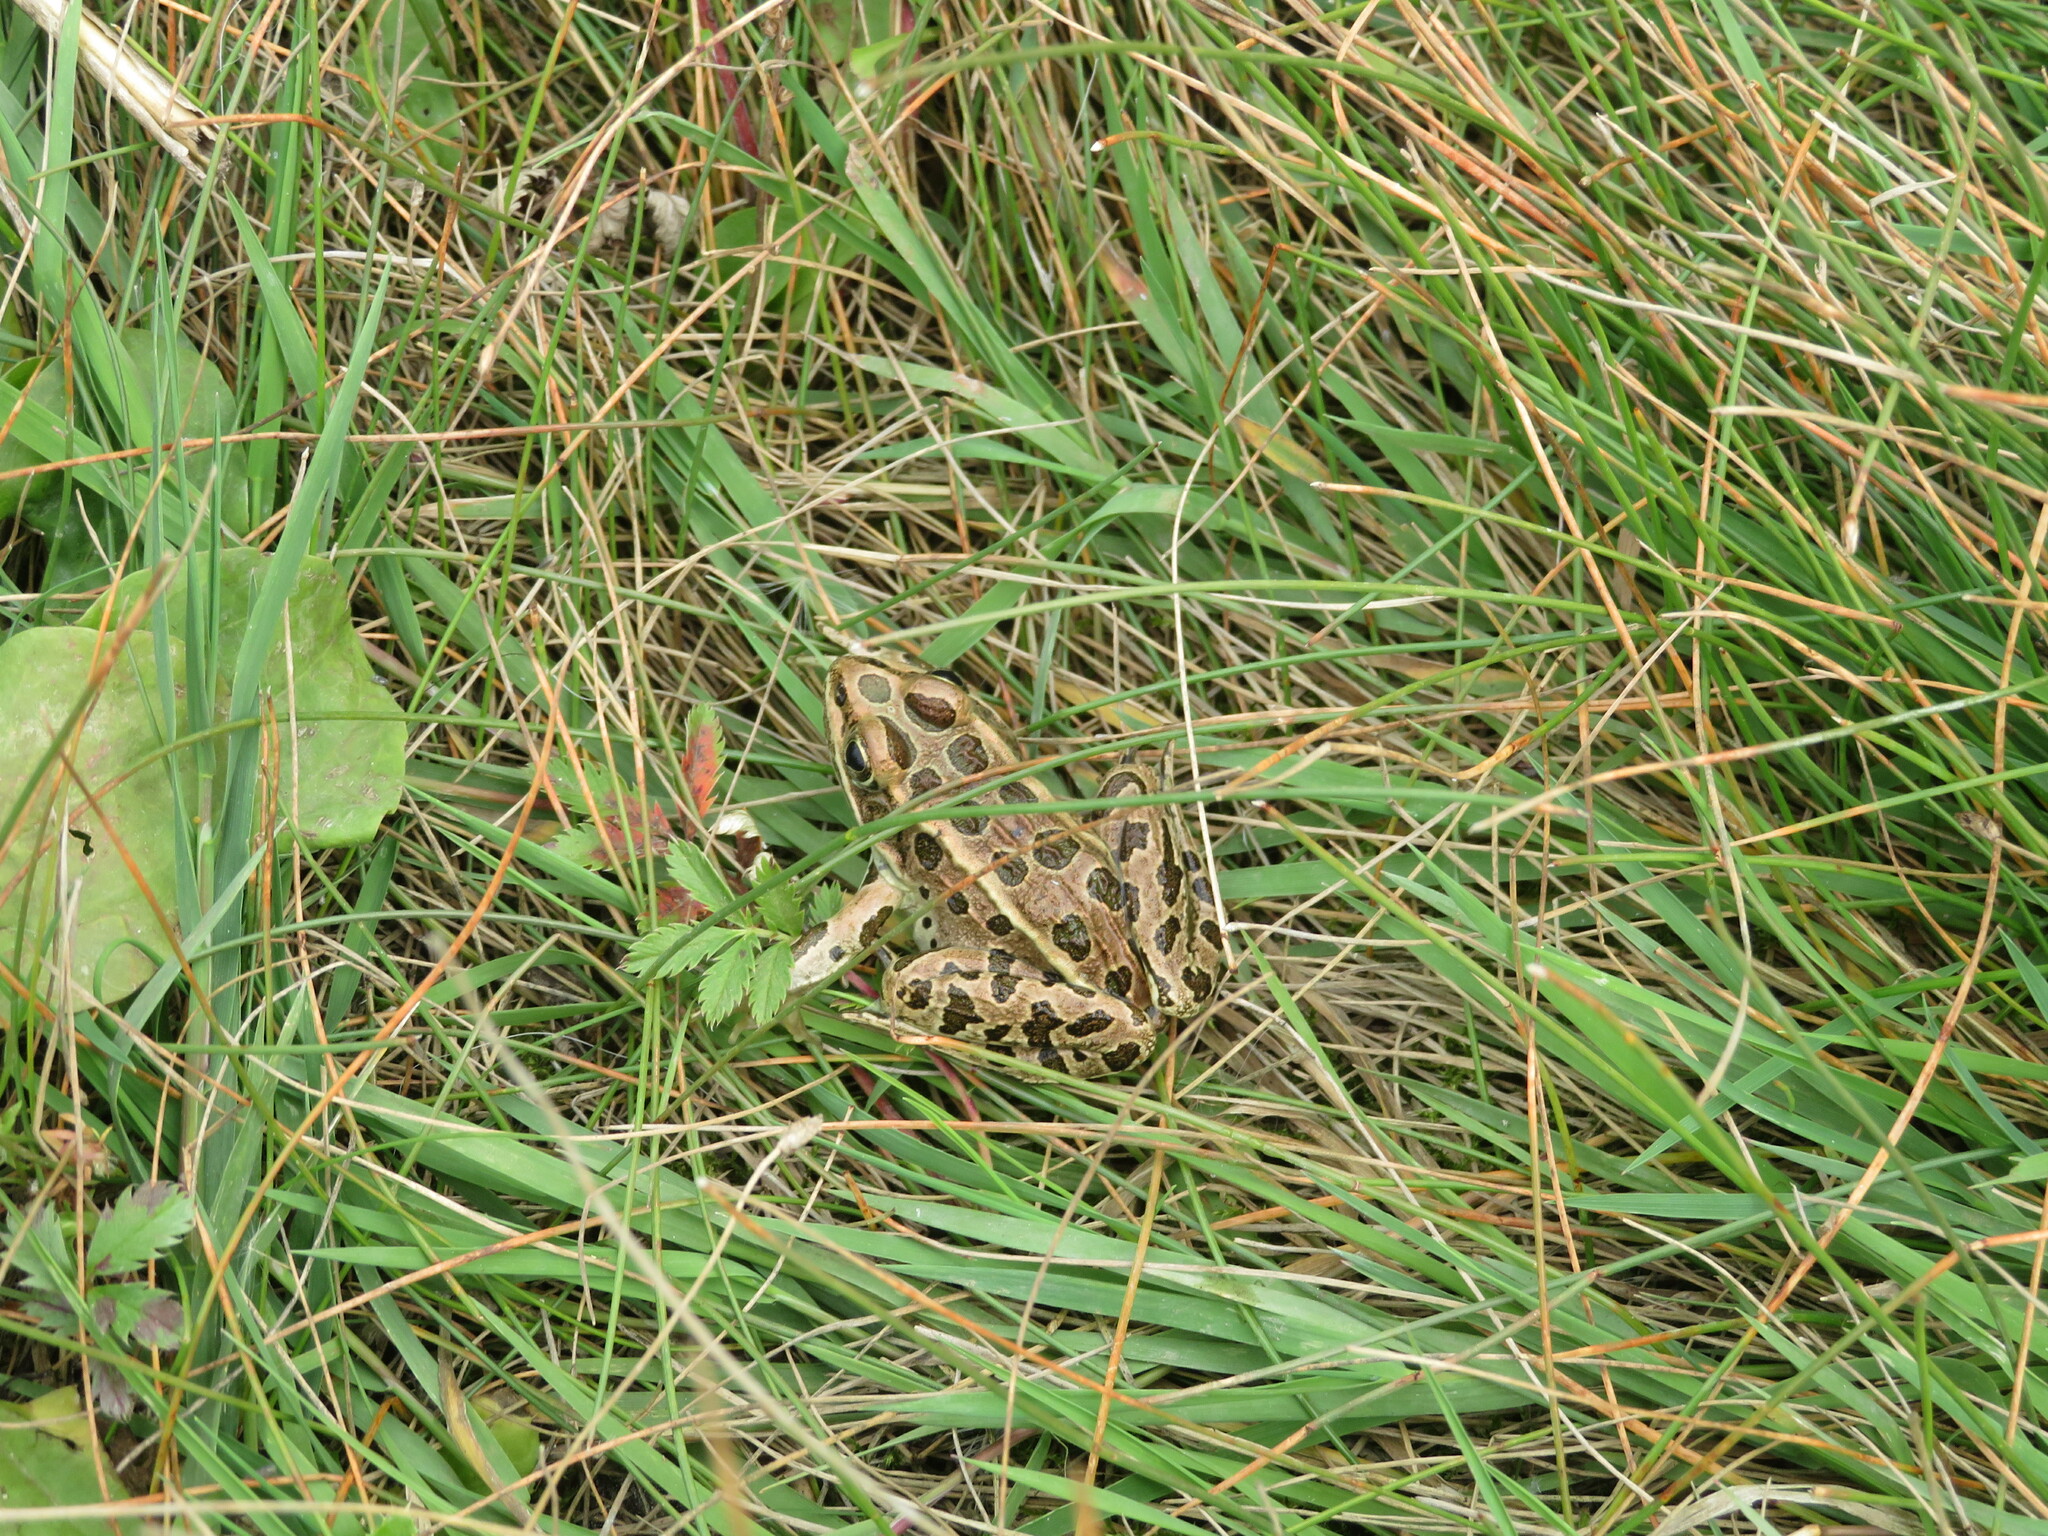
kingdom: Animalia
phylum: Chordata
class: Amphibia
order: Anura
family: Ranidae
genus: Lithobates
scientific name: Lithobates pipiens
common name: Northern leopard frog
